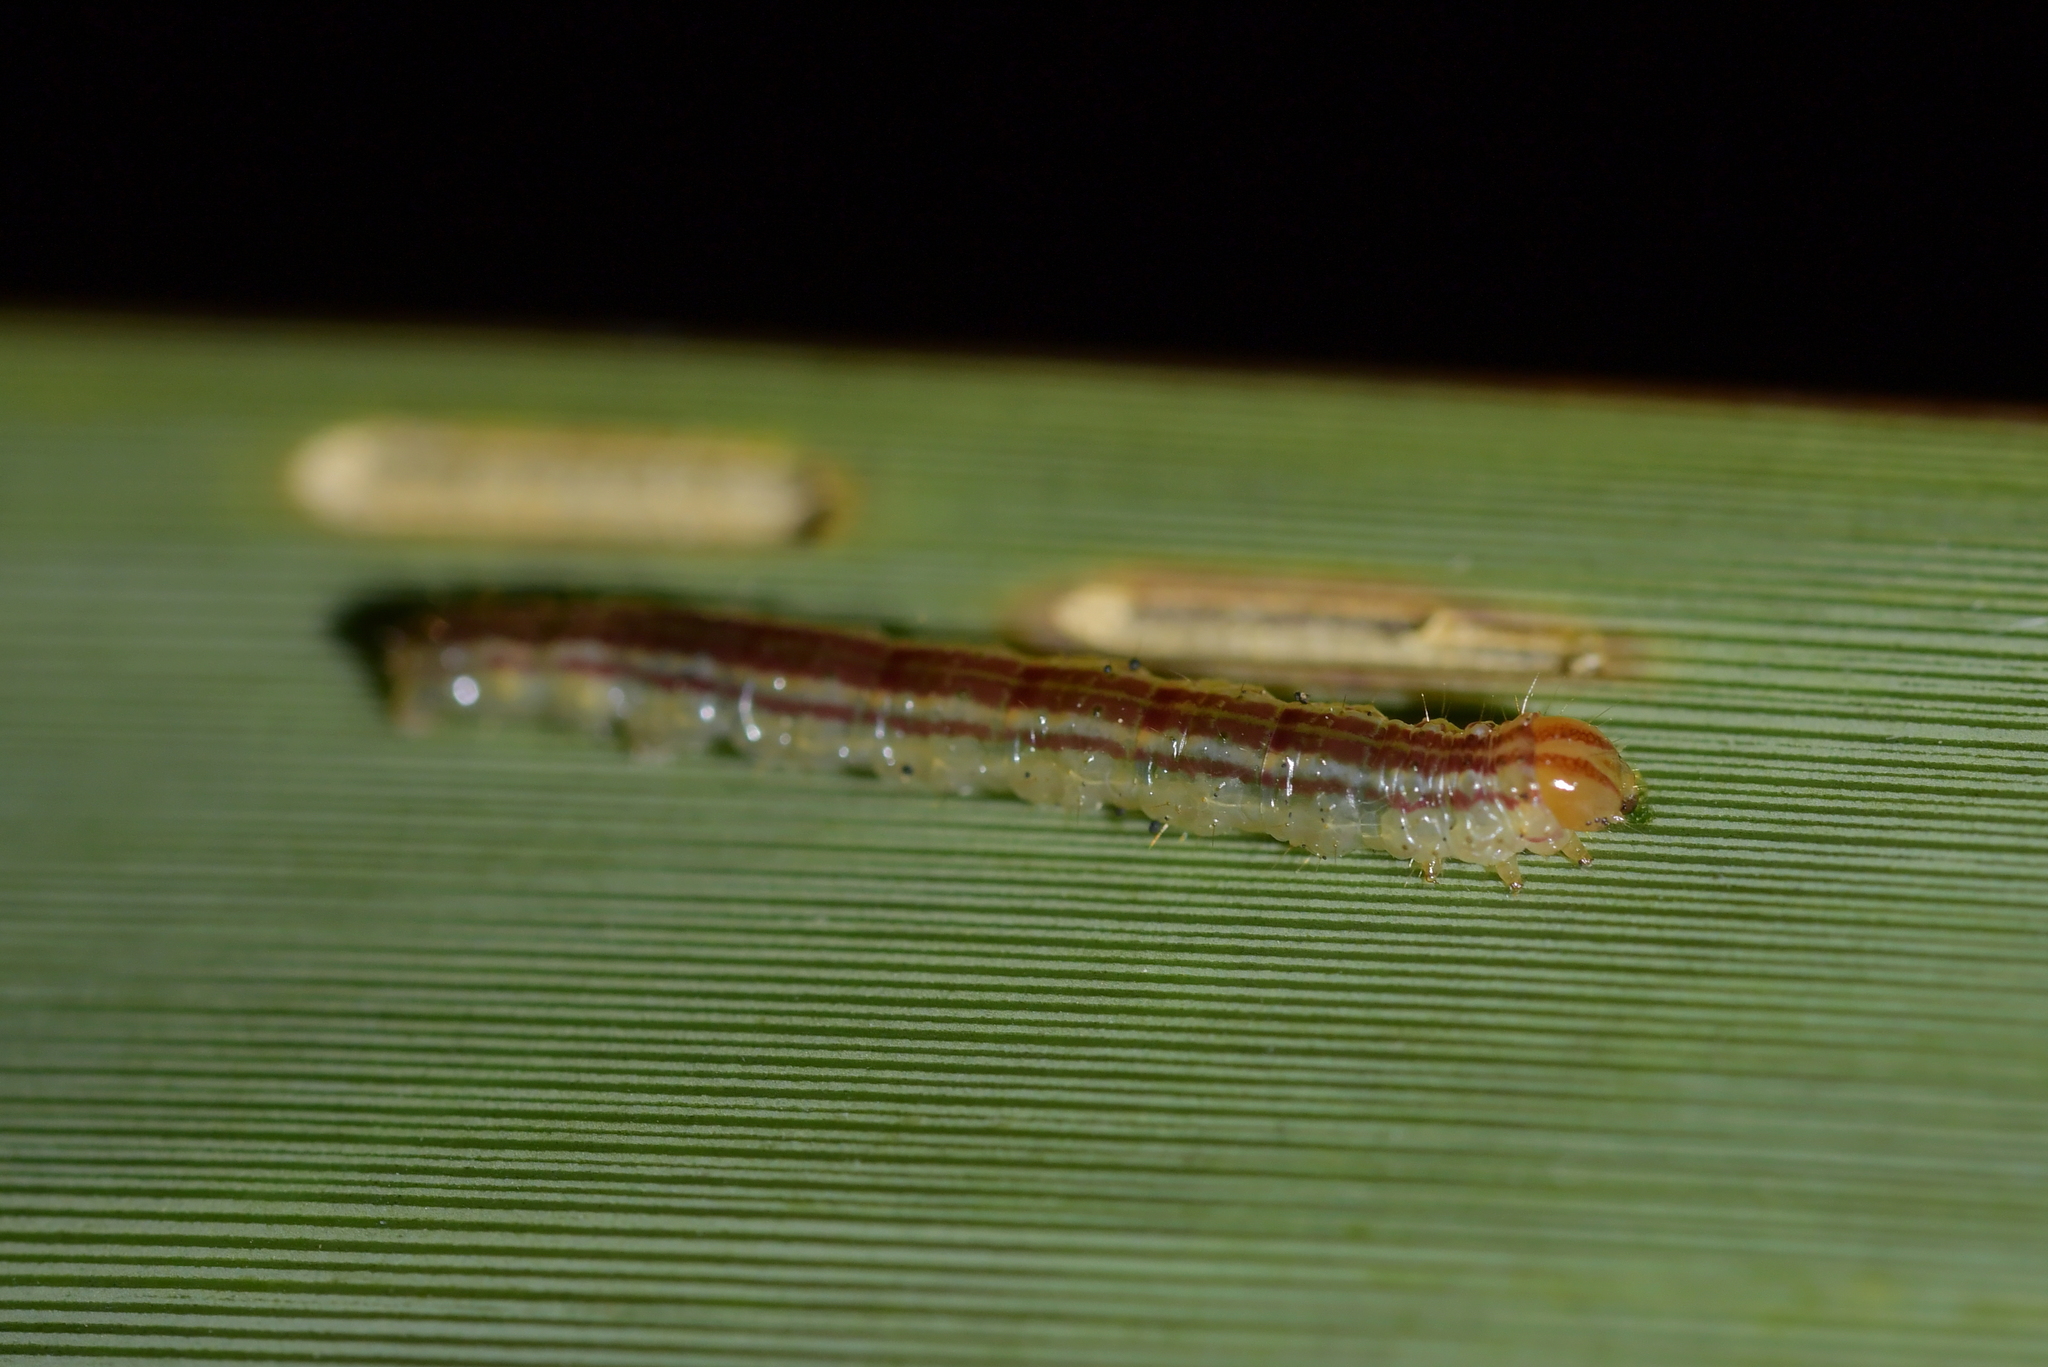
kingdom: Animalia
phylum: Arthropoda
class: Insecta
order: Lepidoptera
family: Geometridae
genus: Orthoclydon
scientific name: Orthoclydon praefectata
